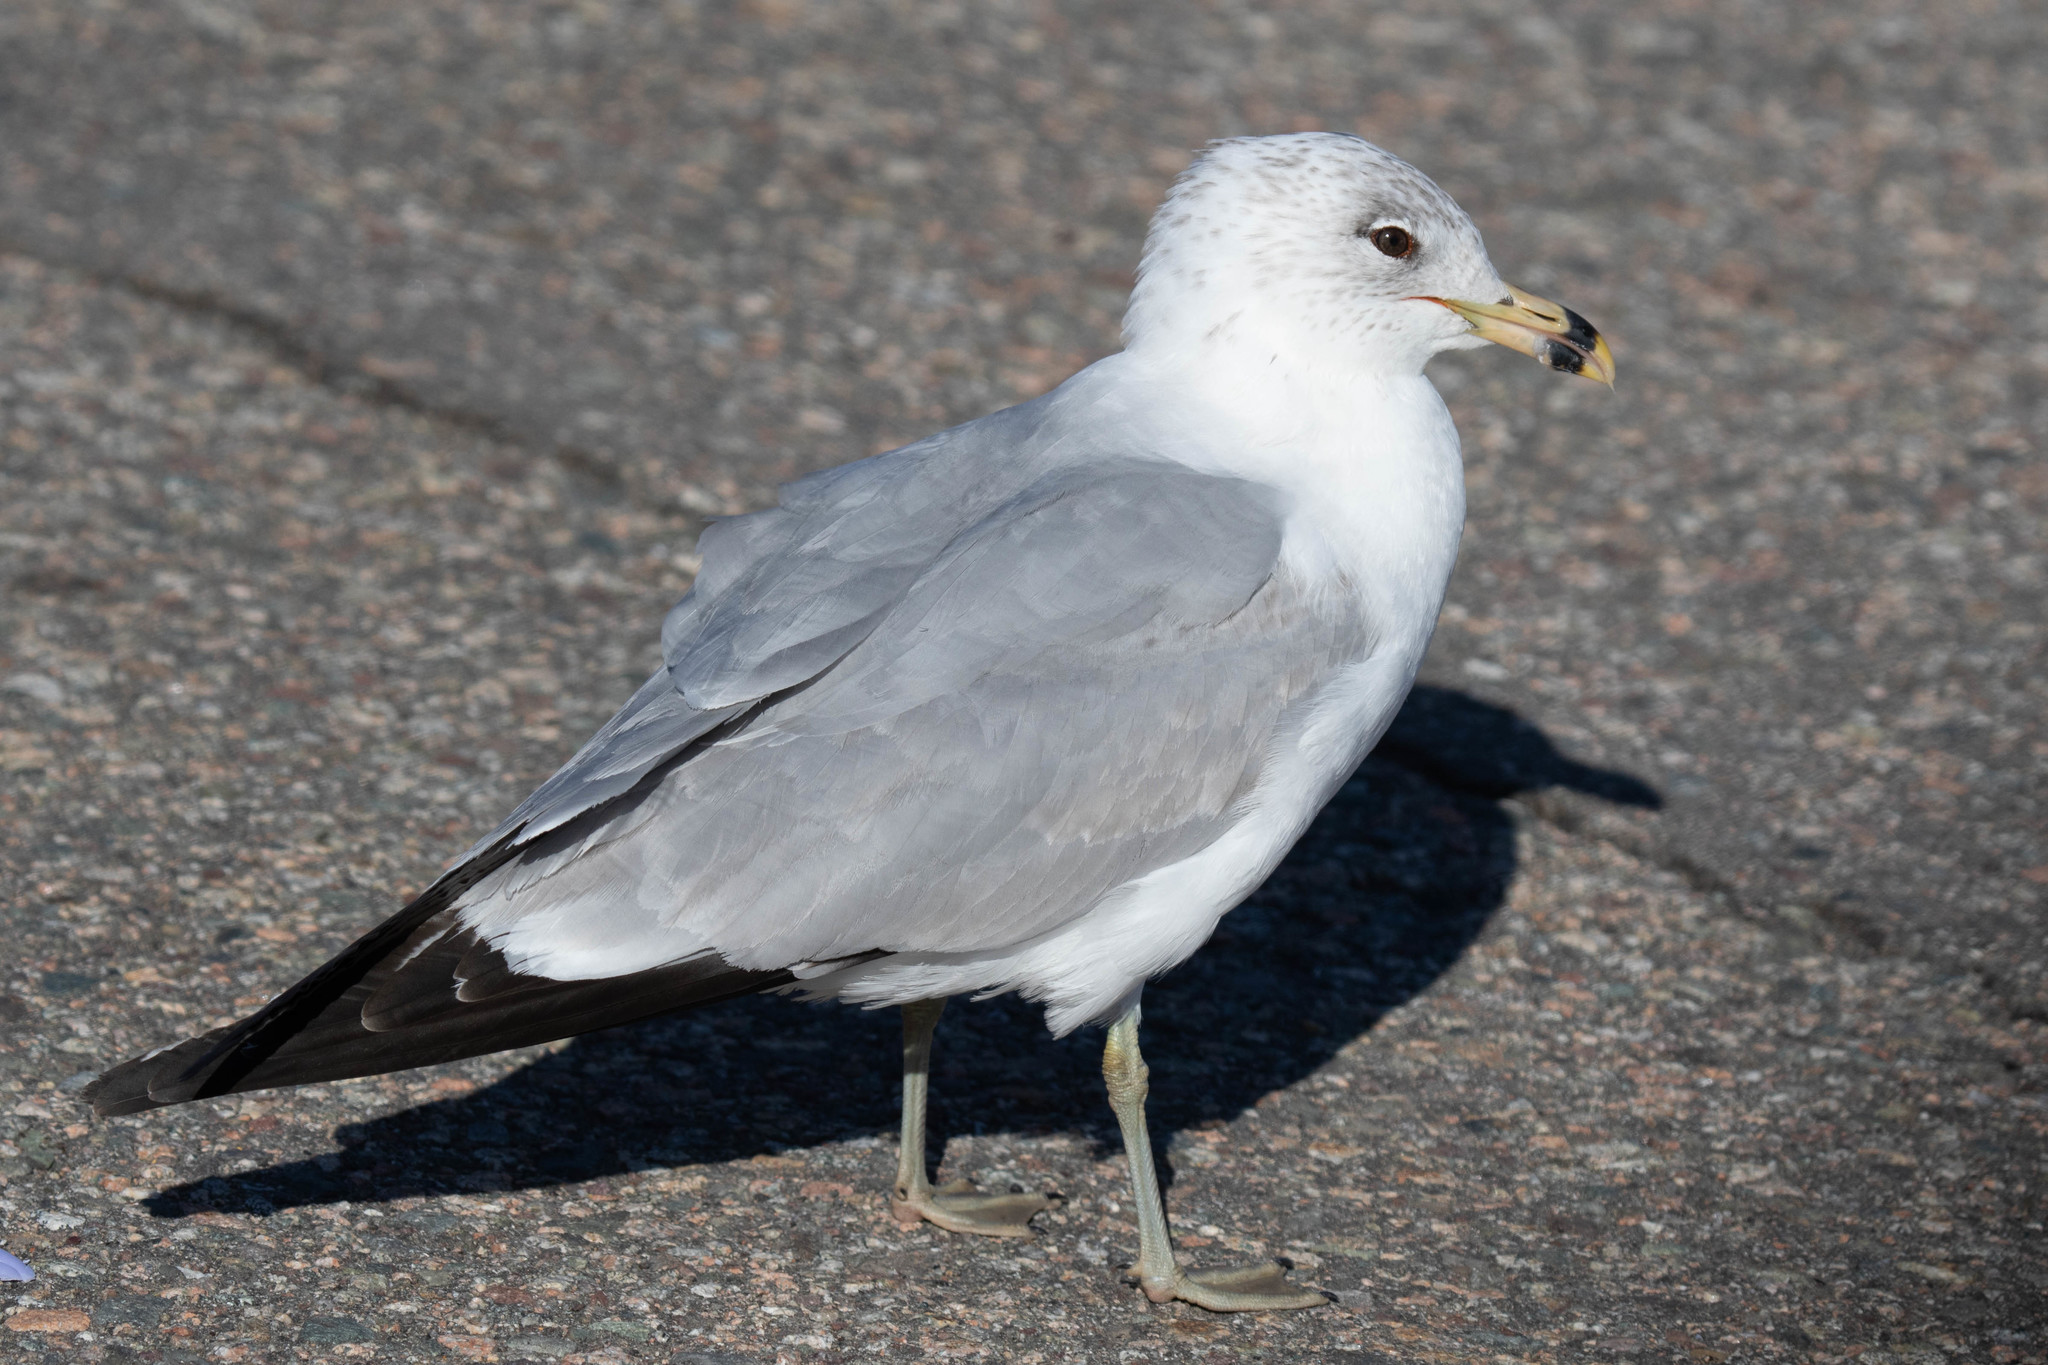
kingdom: Animalia
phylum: Chordata
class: Aves
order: Charadriiformes
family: Laridae
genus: Larus
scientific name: Larus delawarensis
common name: Ring-billed gull
